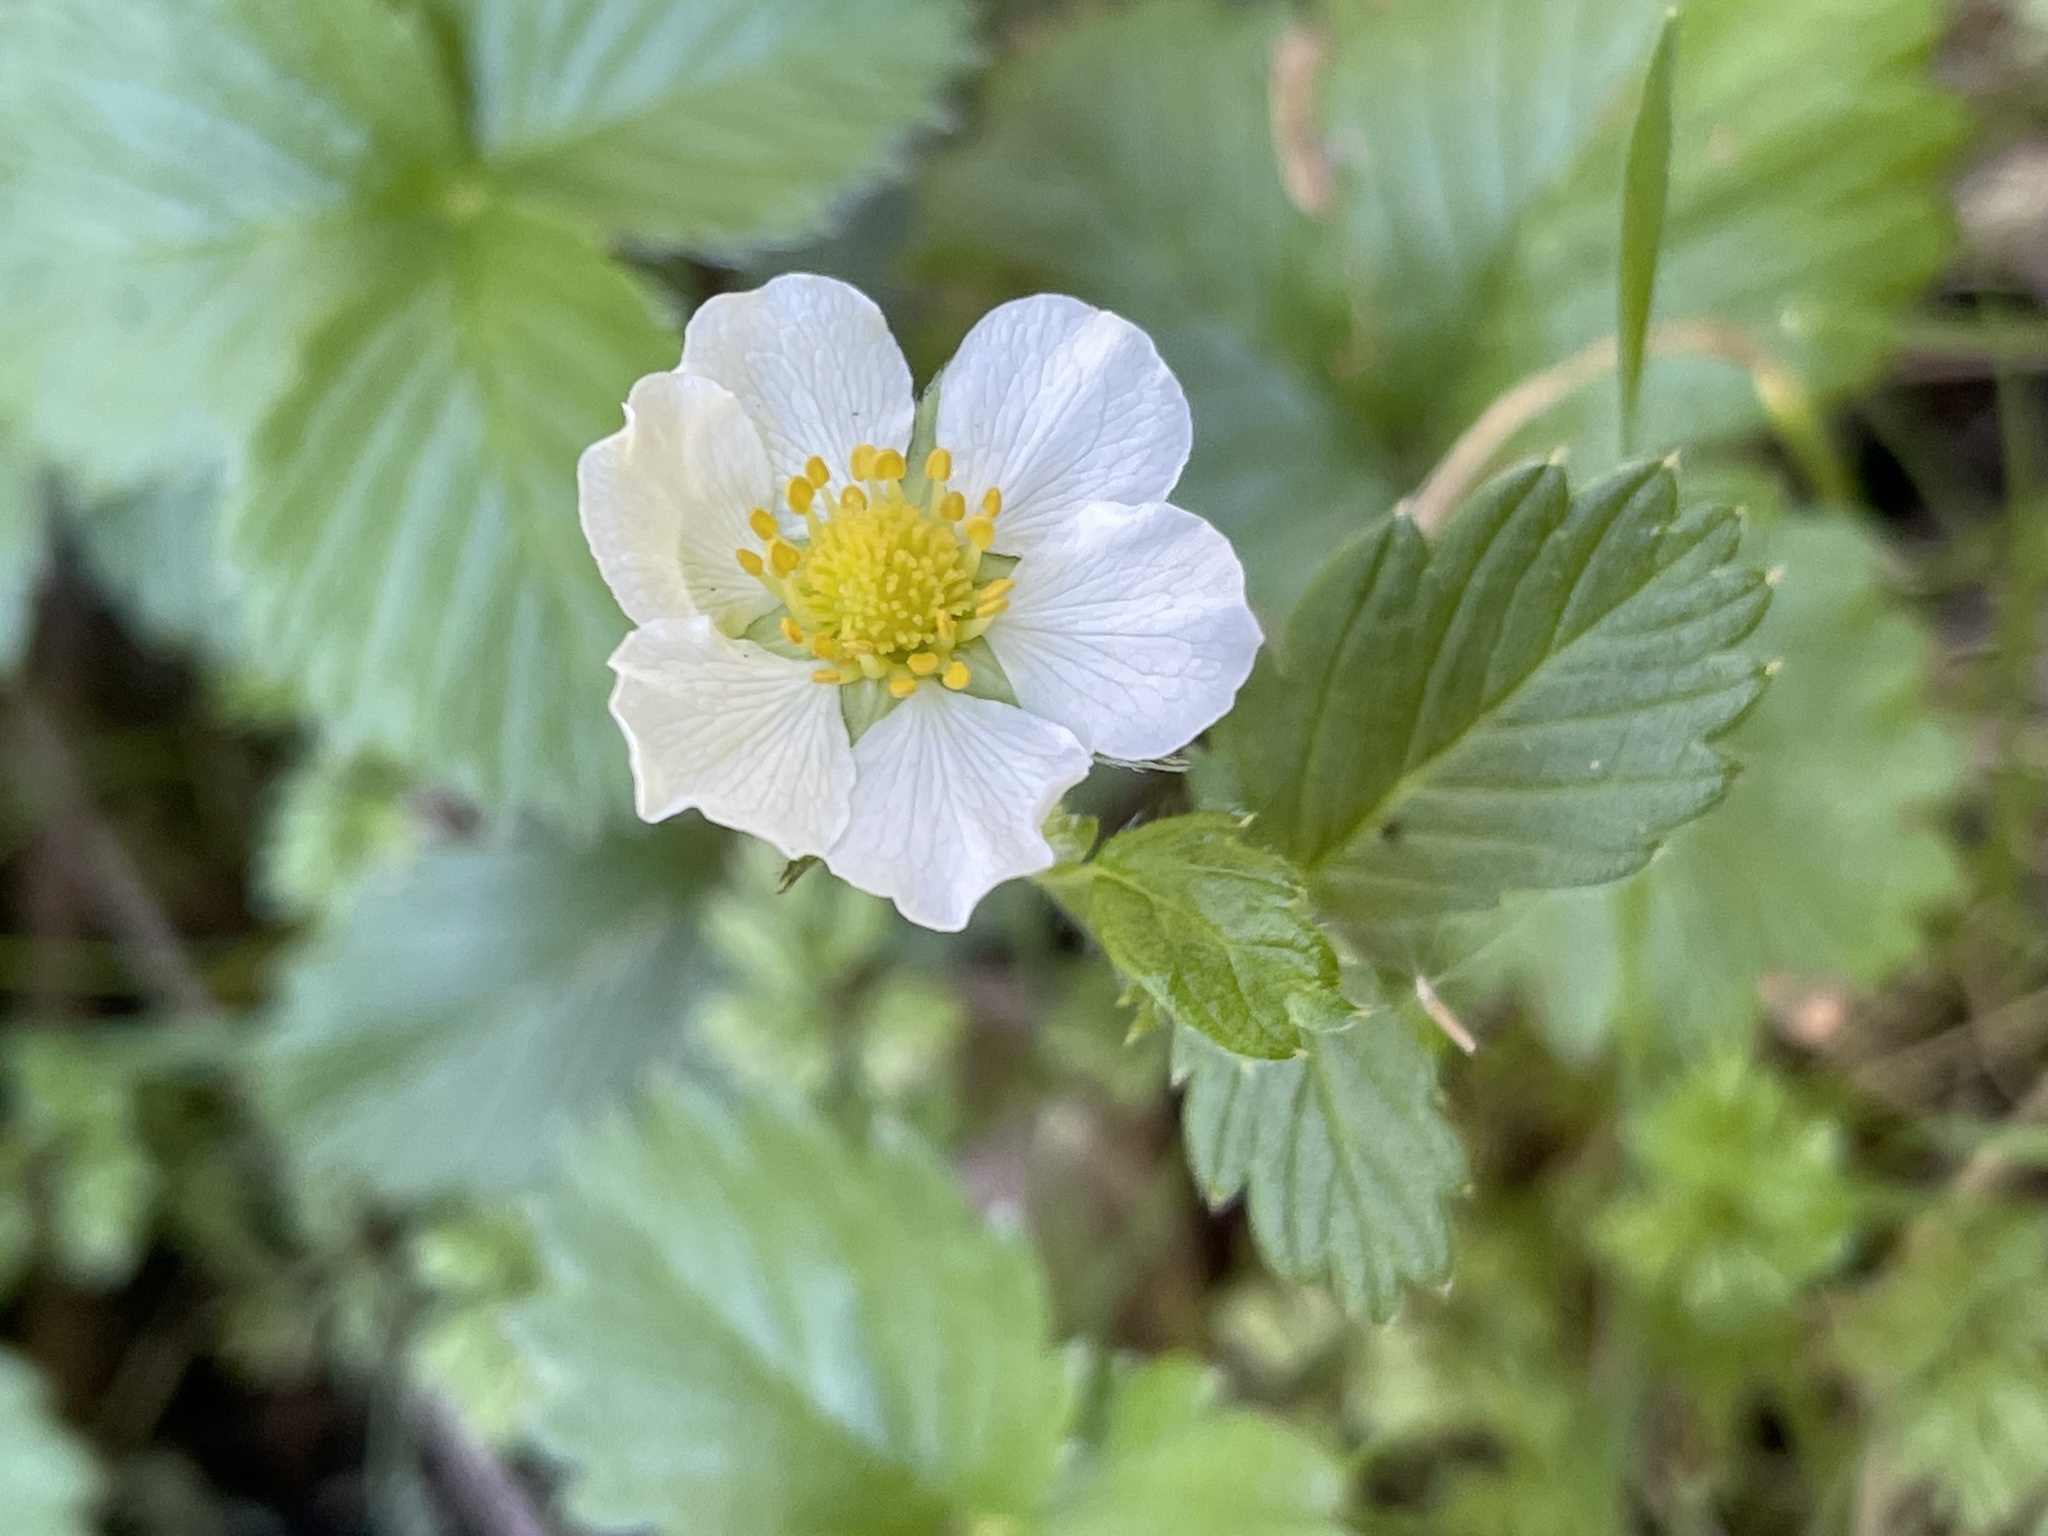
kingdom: Plantae
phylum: Tracheophyta
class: Magnoliopsida
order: Rosales
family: Rosaceae
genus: Fragaria
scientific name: Fragaria vesca
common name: Wild strawberry
